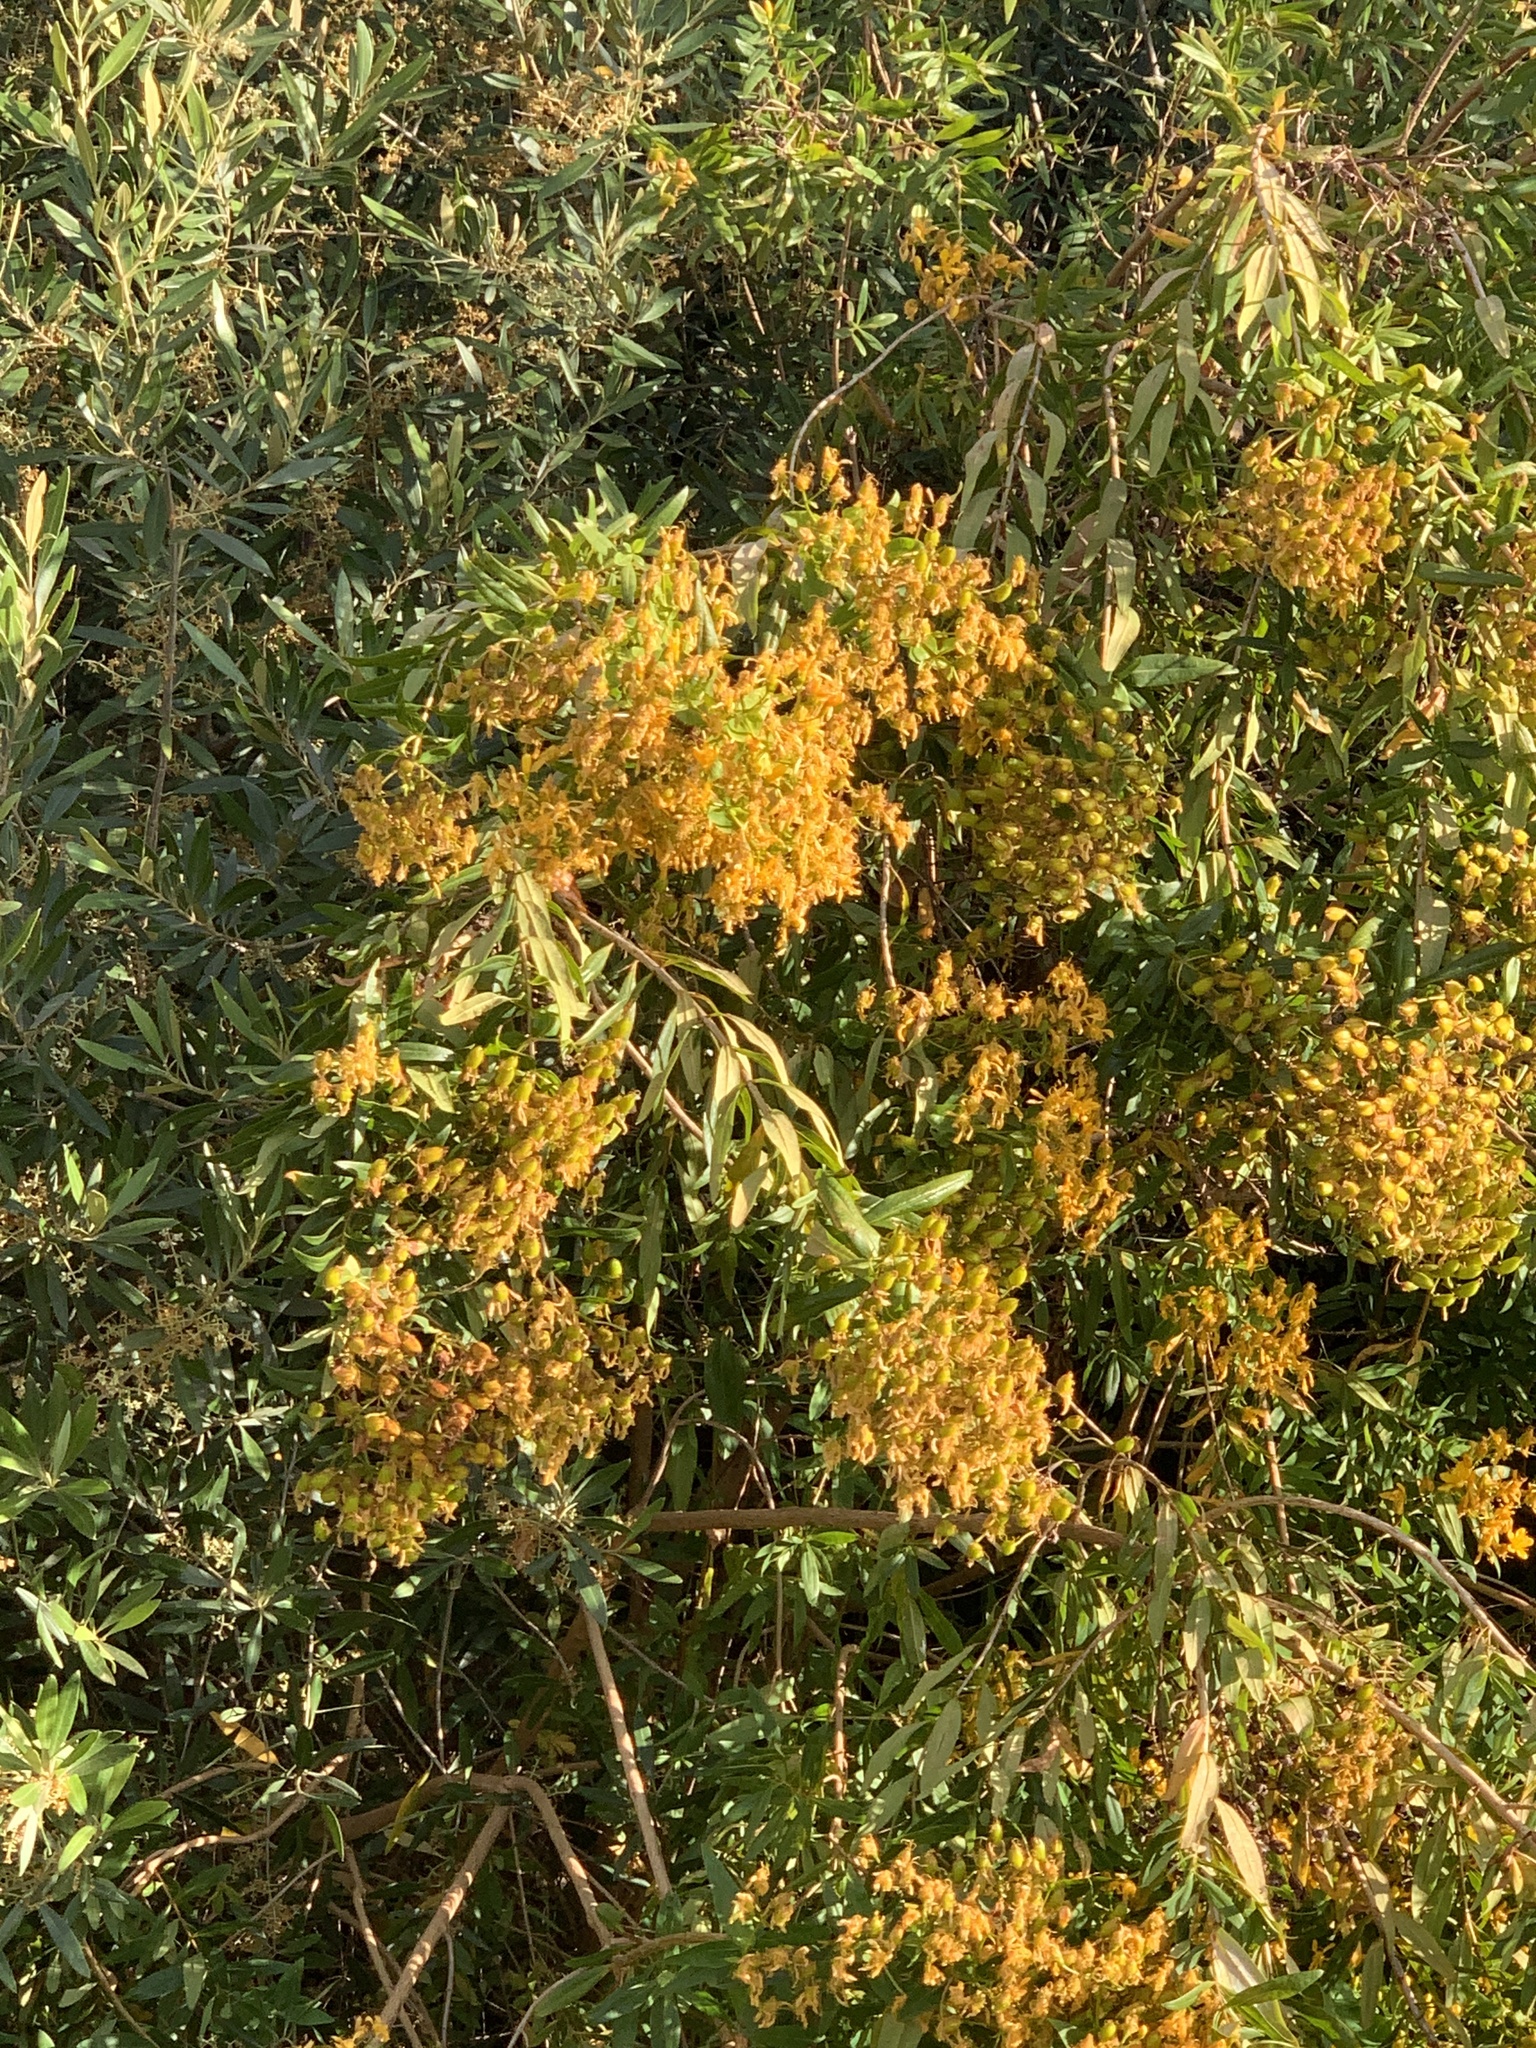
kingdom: Plantae
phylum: Tracheophyta
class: Magnoliopsida
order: Malpighiales
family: Hypericaceae
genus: Hypericum
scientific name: Hypericum canariense
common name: Canary island st. johnswort
